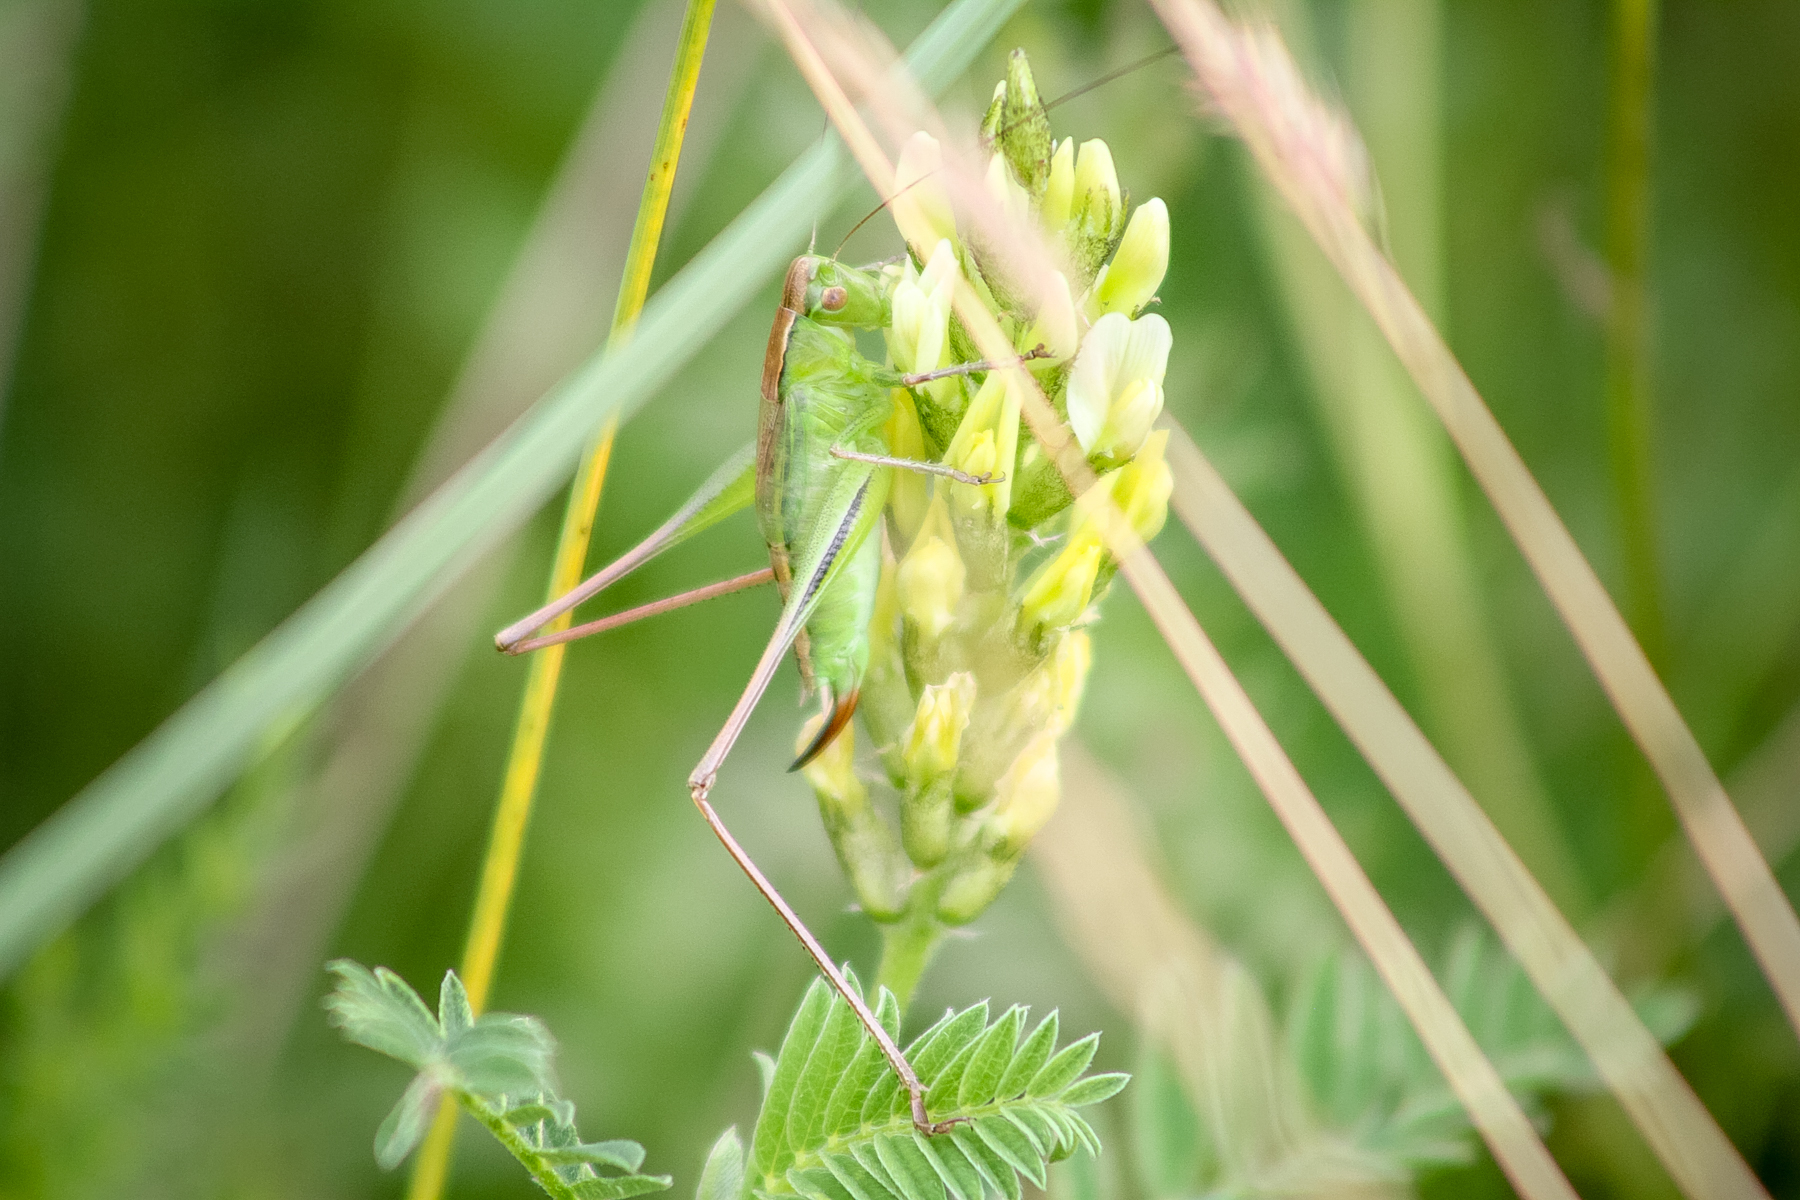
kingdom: Animalia
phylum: Arthropoda
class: Insecta
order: Orthoptera
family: Tettigoniidae
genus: Bicolorana
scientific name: Bicolorana bicolor
